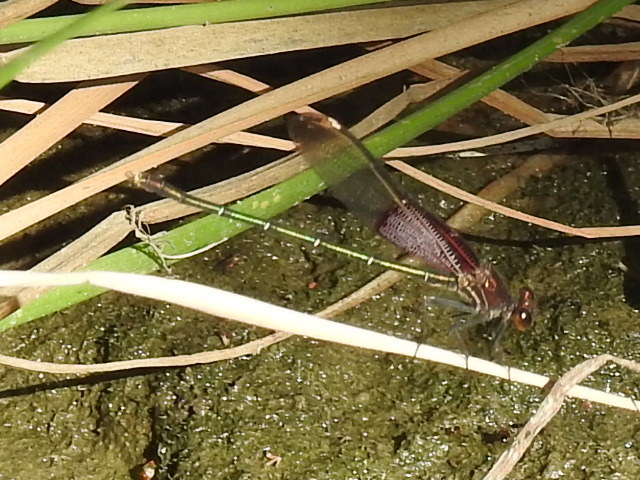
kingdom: Animalia
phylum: Arthropoda
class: Insecta
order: Odonata
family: Calopterygidae
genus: Hetaerina
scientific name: Hetaerina americana
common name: American rubyspot
